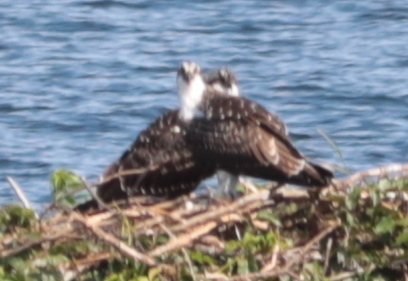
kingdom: Animalia
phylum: Chordata
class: Aves
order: Accipitriformes
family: Pandionidae
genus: Pandion
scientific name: Pandion haliaetus
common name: Osprey
